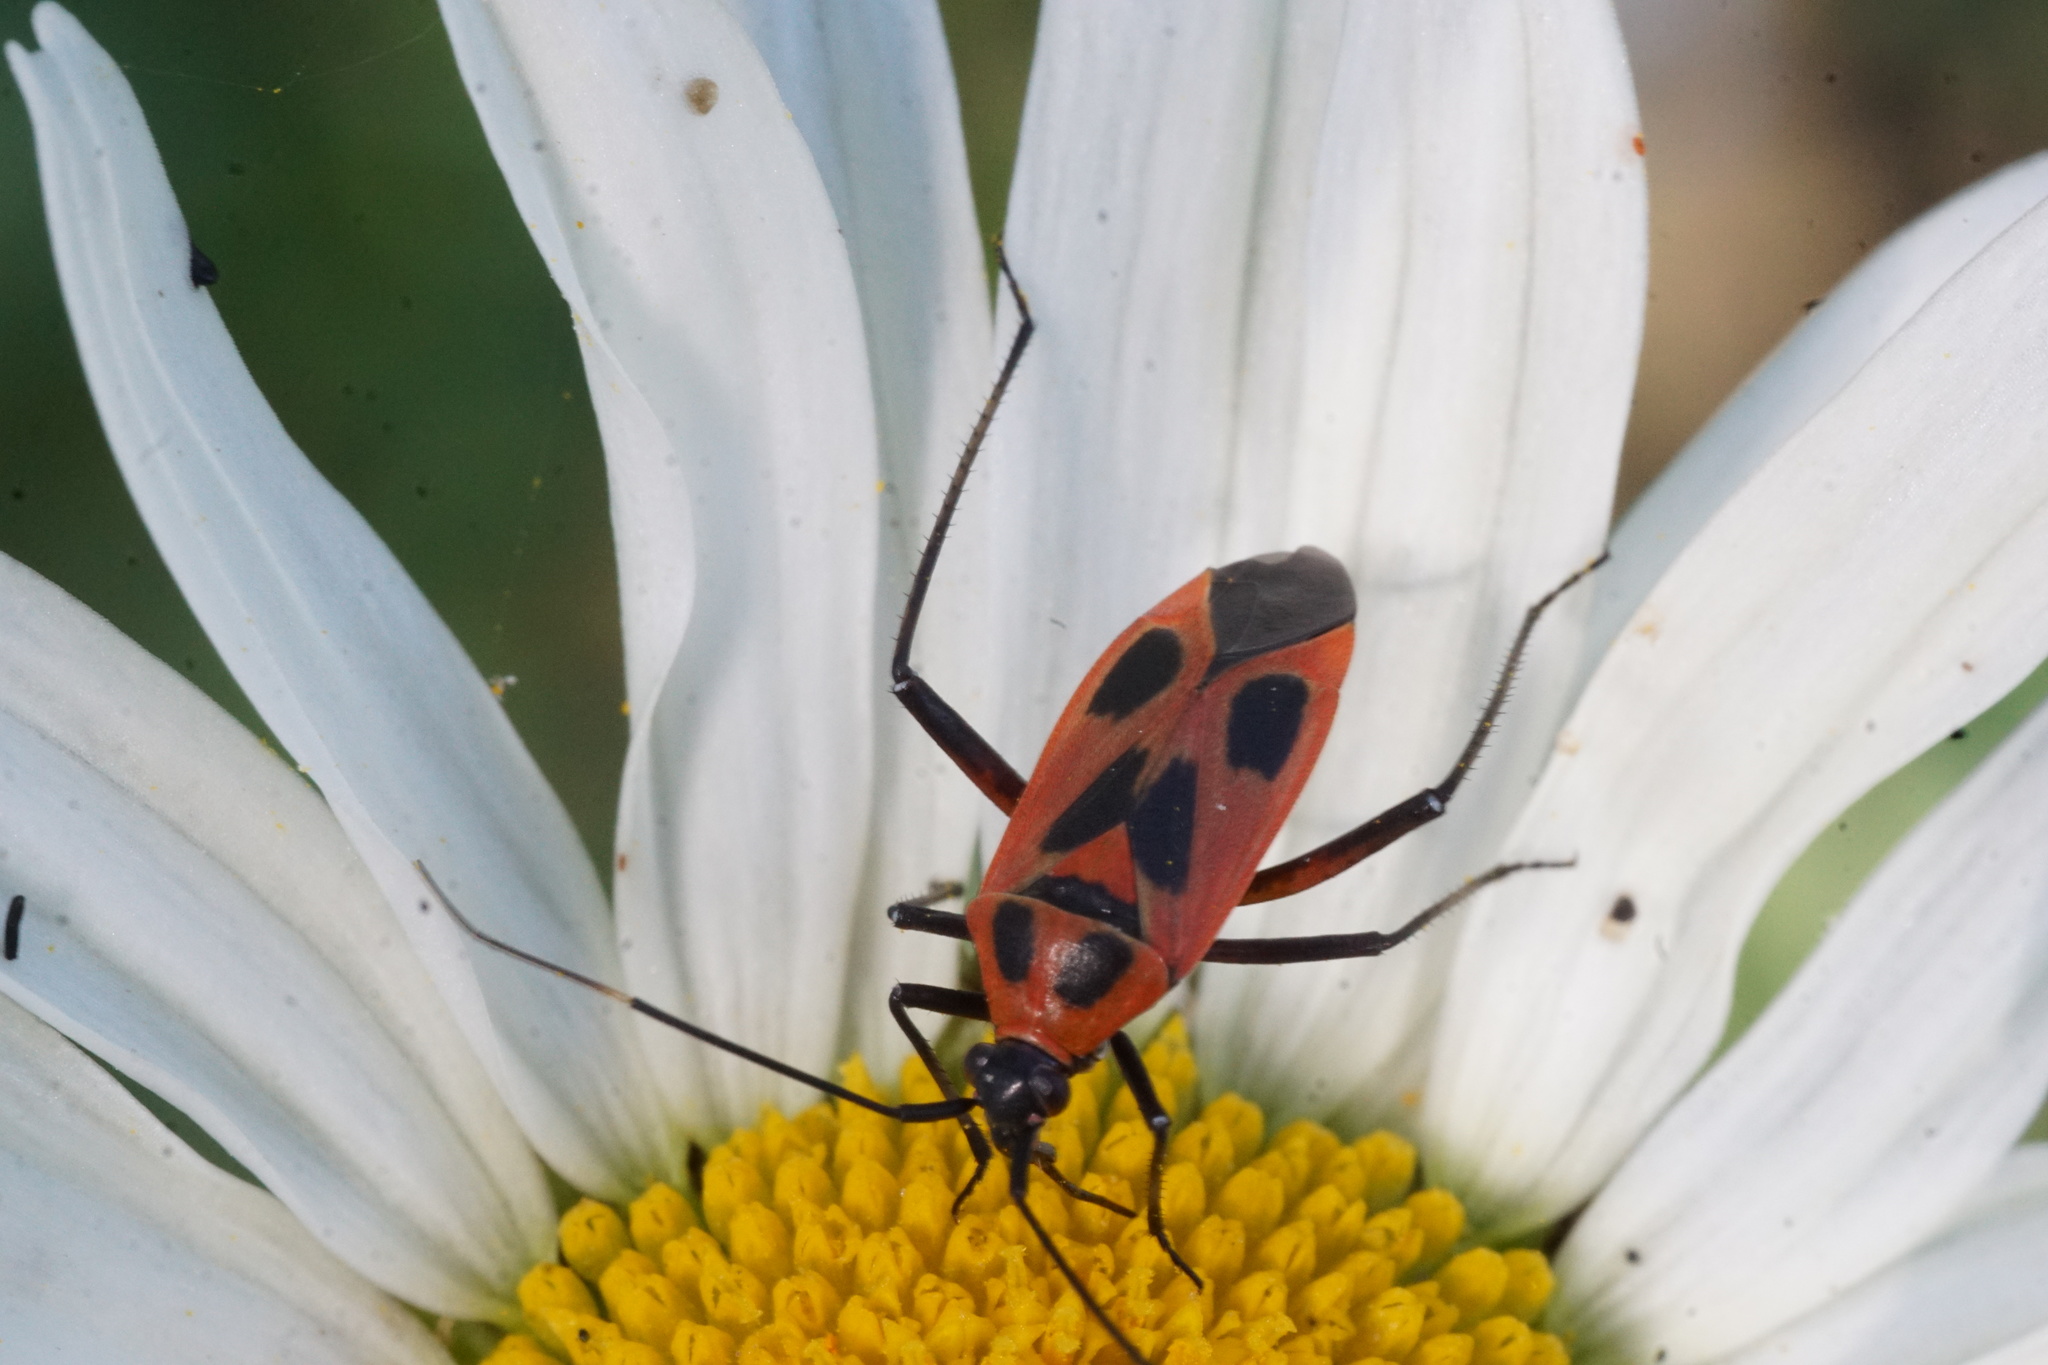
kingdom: Animalia
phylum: Arthropoda
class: Insecta
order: Hemiptera
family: Miridae
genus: Calocoris
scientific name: Calocoris nemoralis
